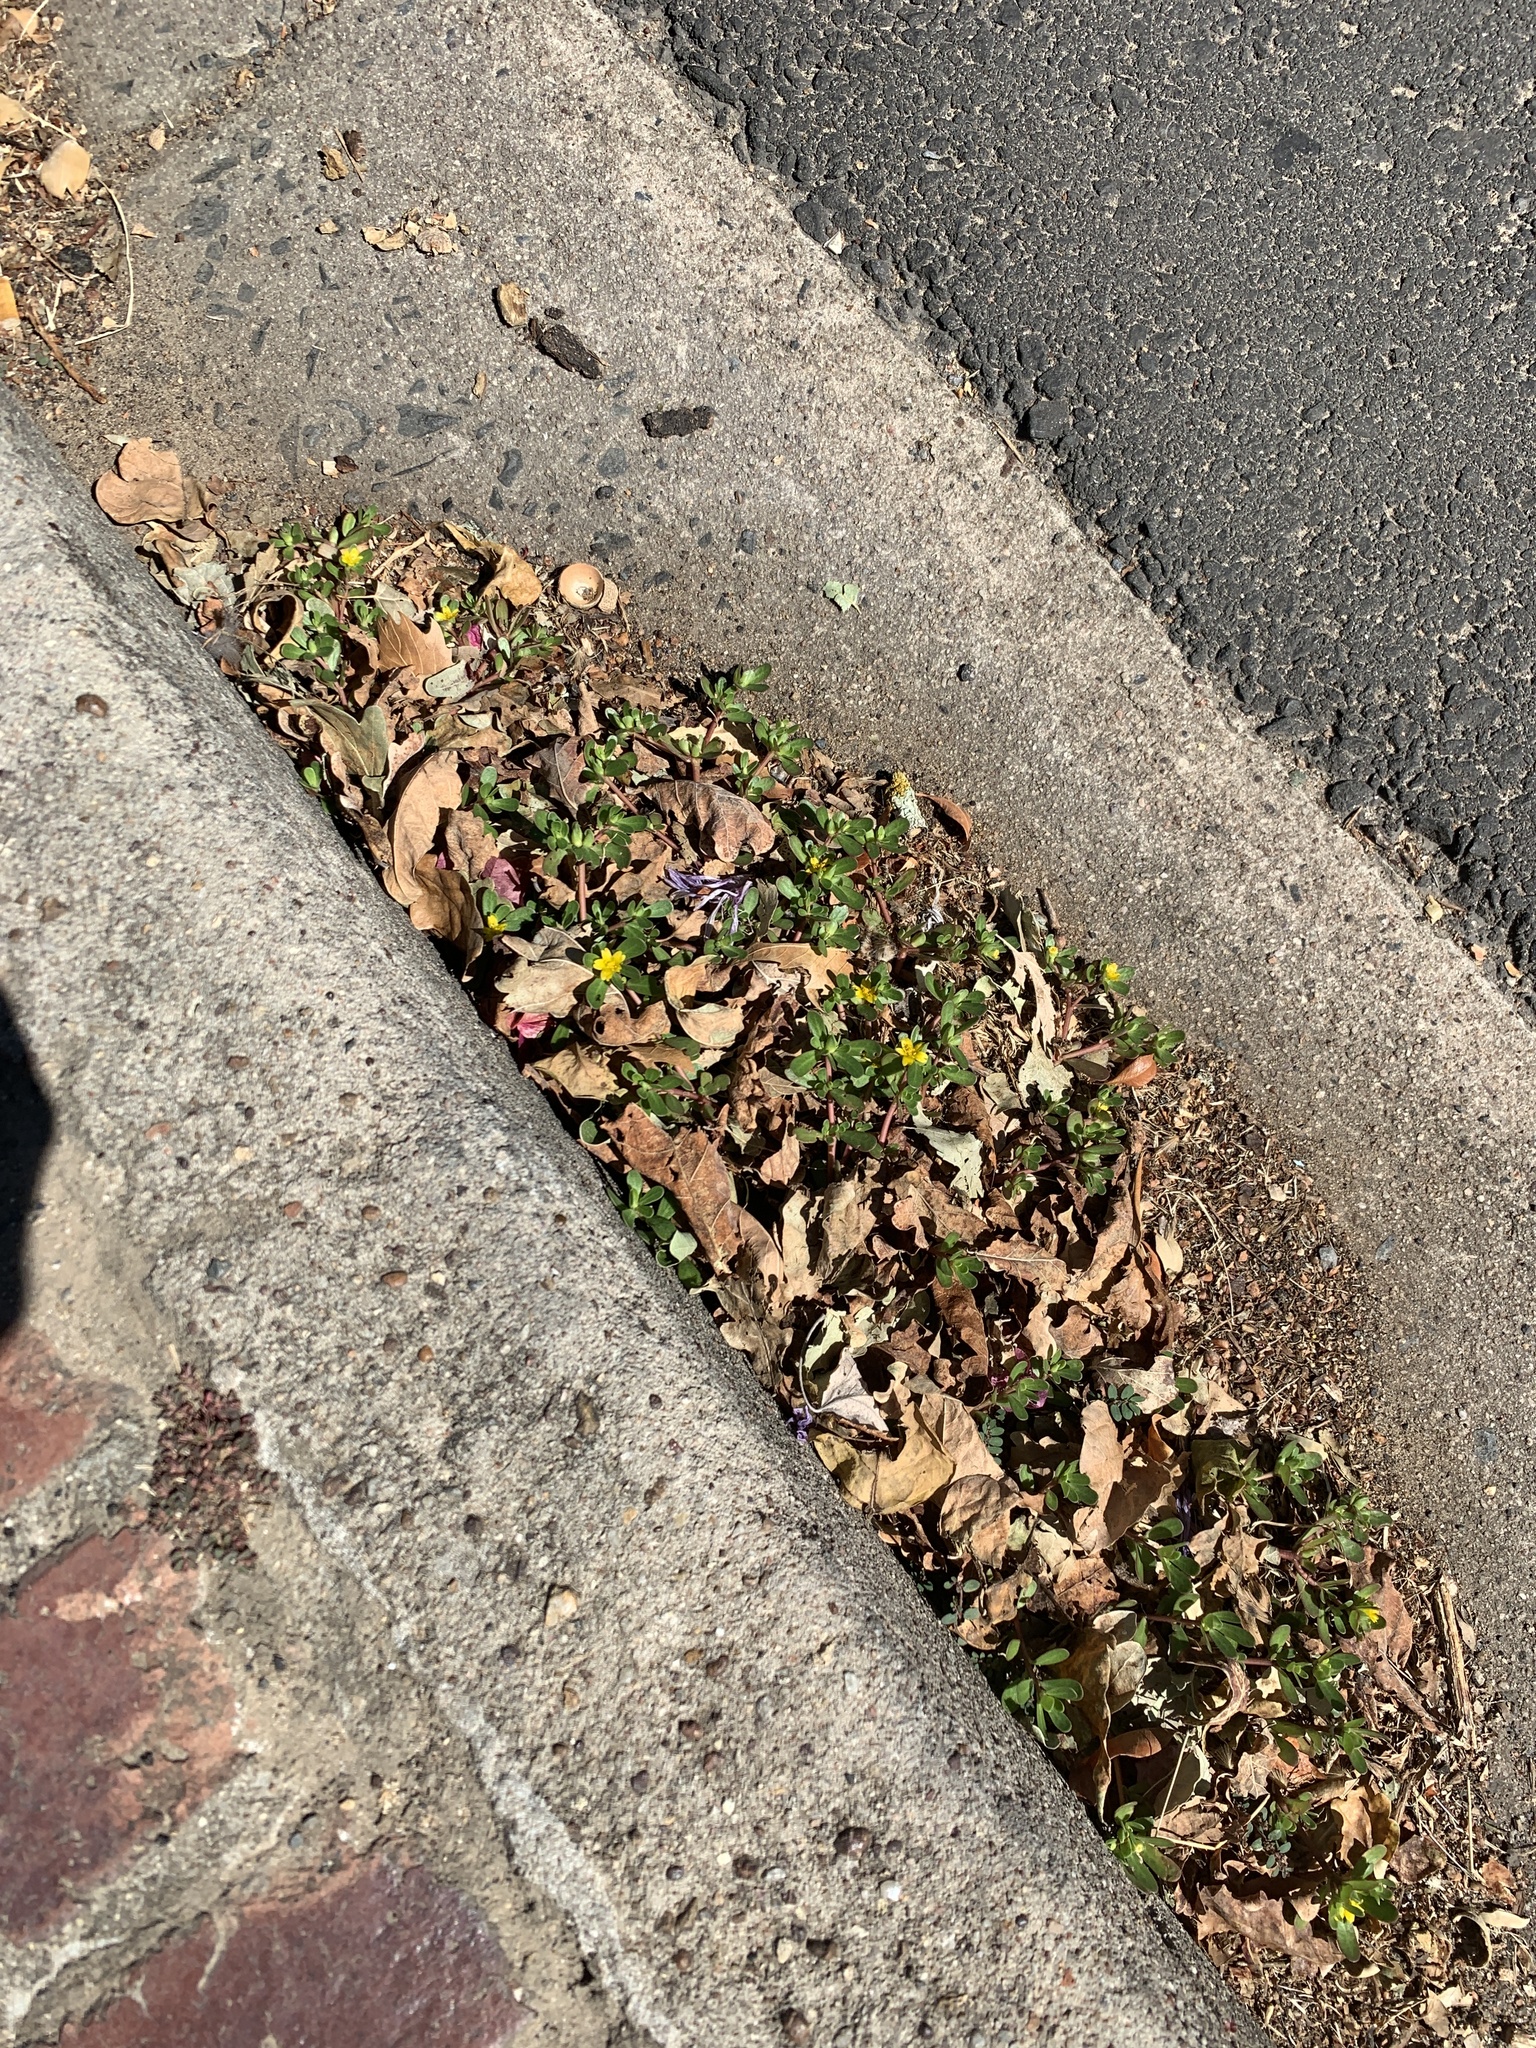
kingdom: Plantae
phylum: Tracheophyta
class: Magnoliopsida
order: Caryophyllales
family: Portulacaceae
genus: Portulaca
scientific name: Portulaca oleracea
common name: Common purslane
